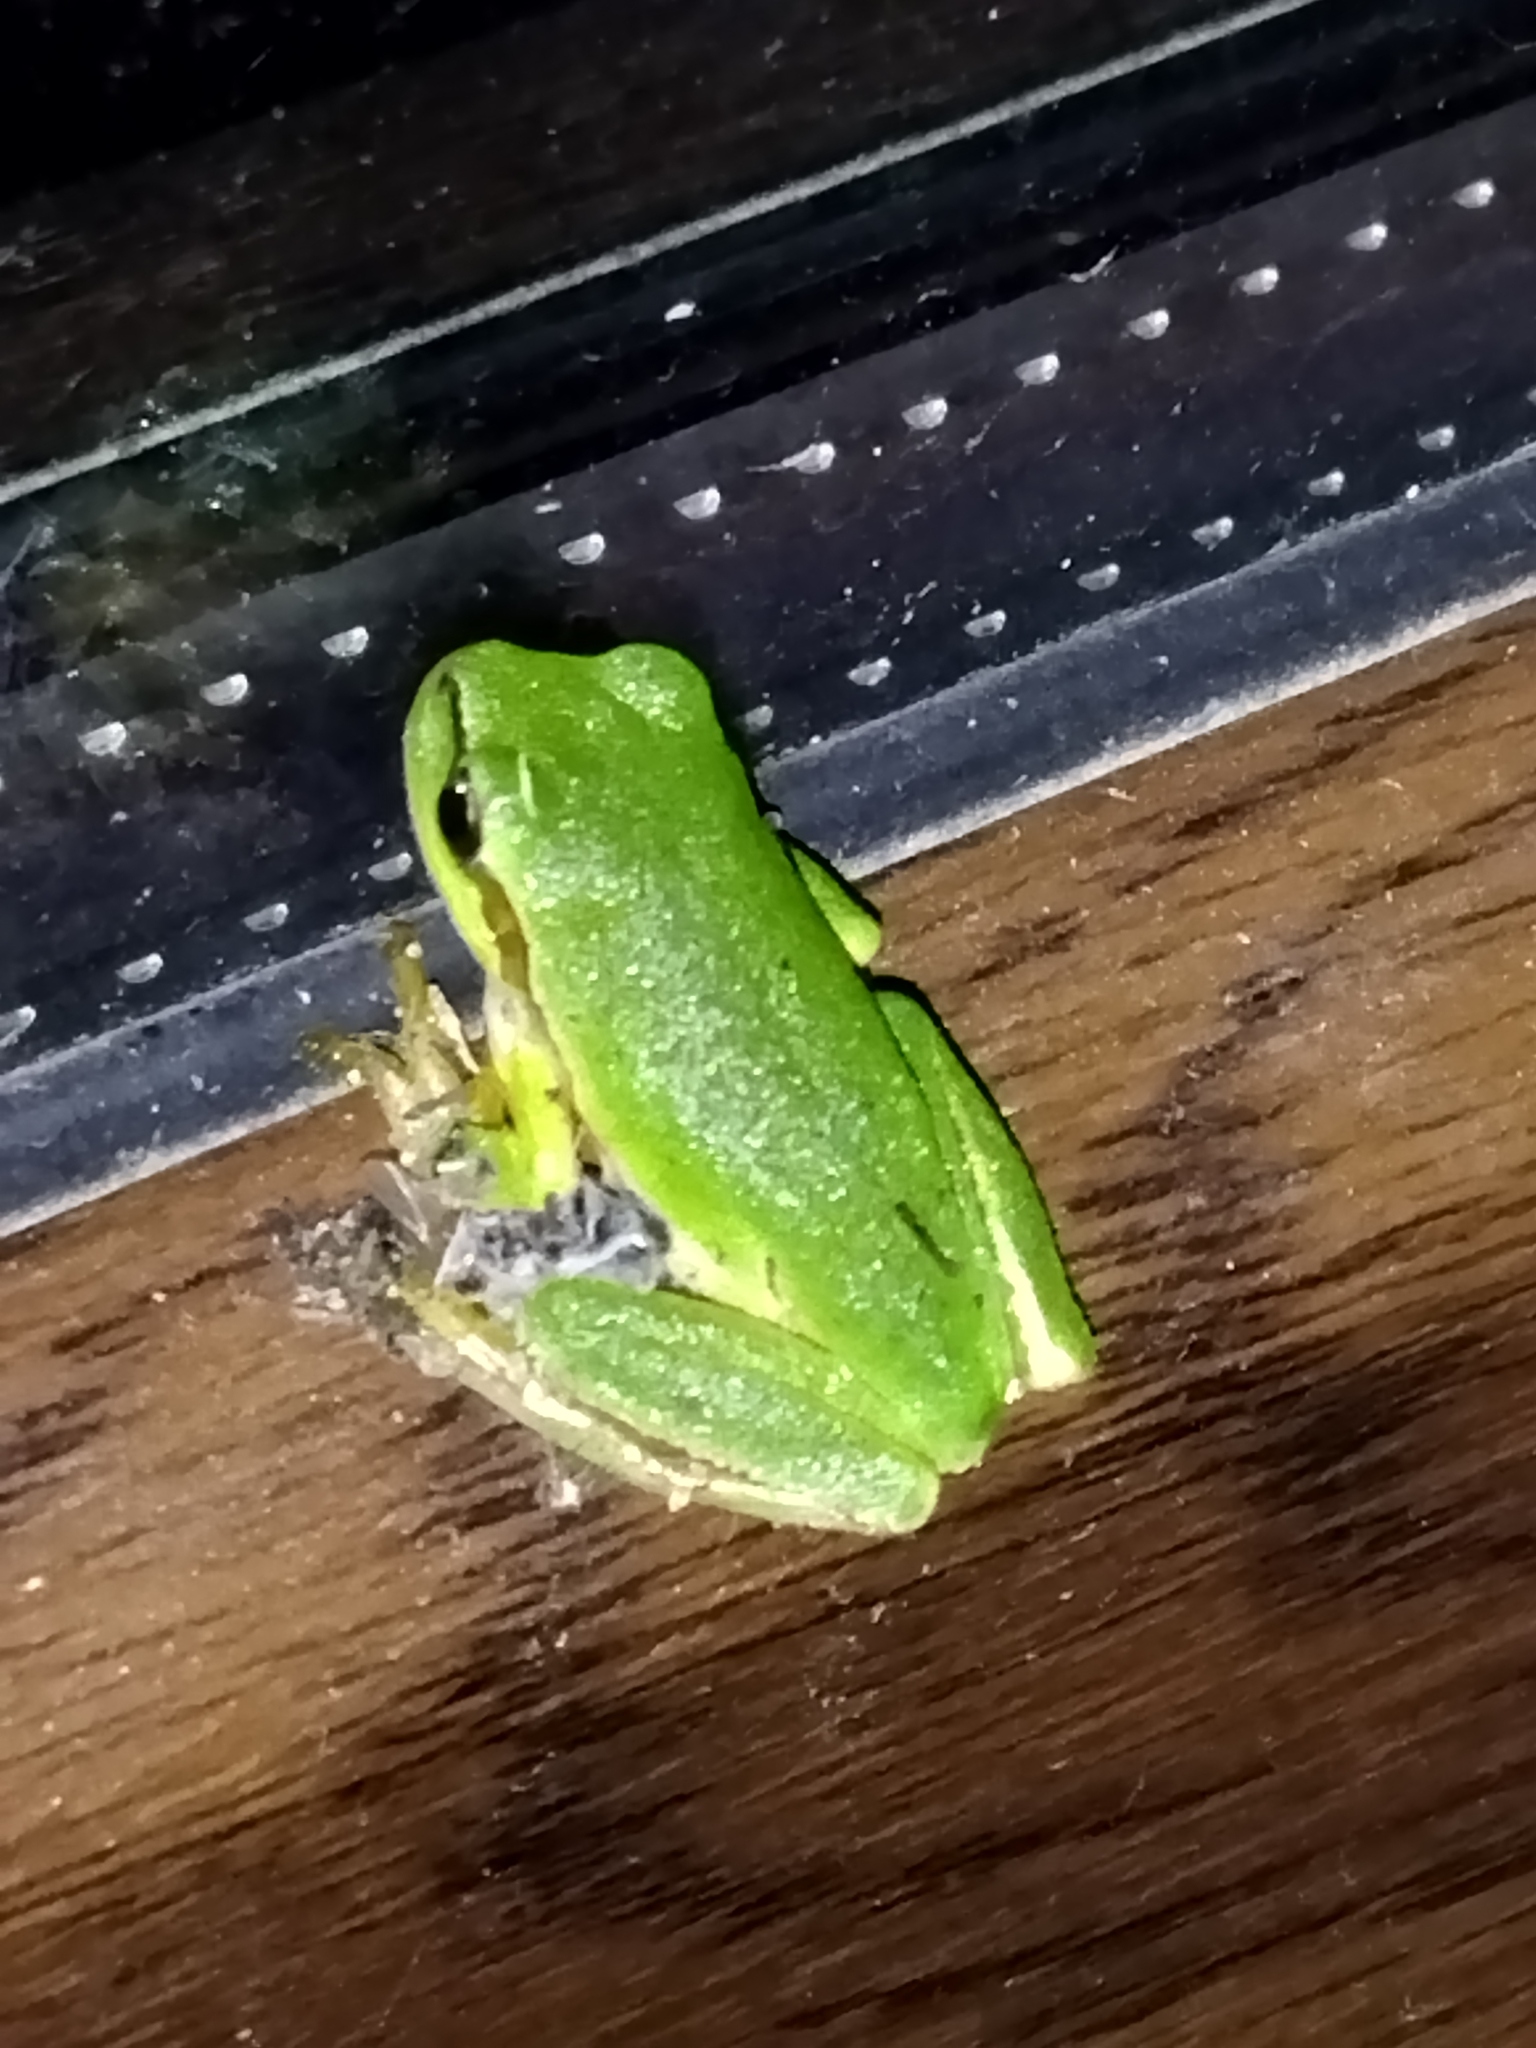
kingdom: Animalia
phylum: Chordata
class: Amphibia
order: Anura
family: Hylidae
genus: Hyla
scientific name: Hyla orientalis
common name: Caucasian treefrog
